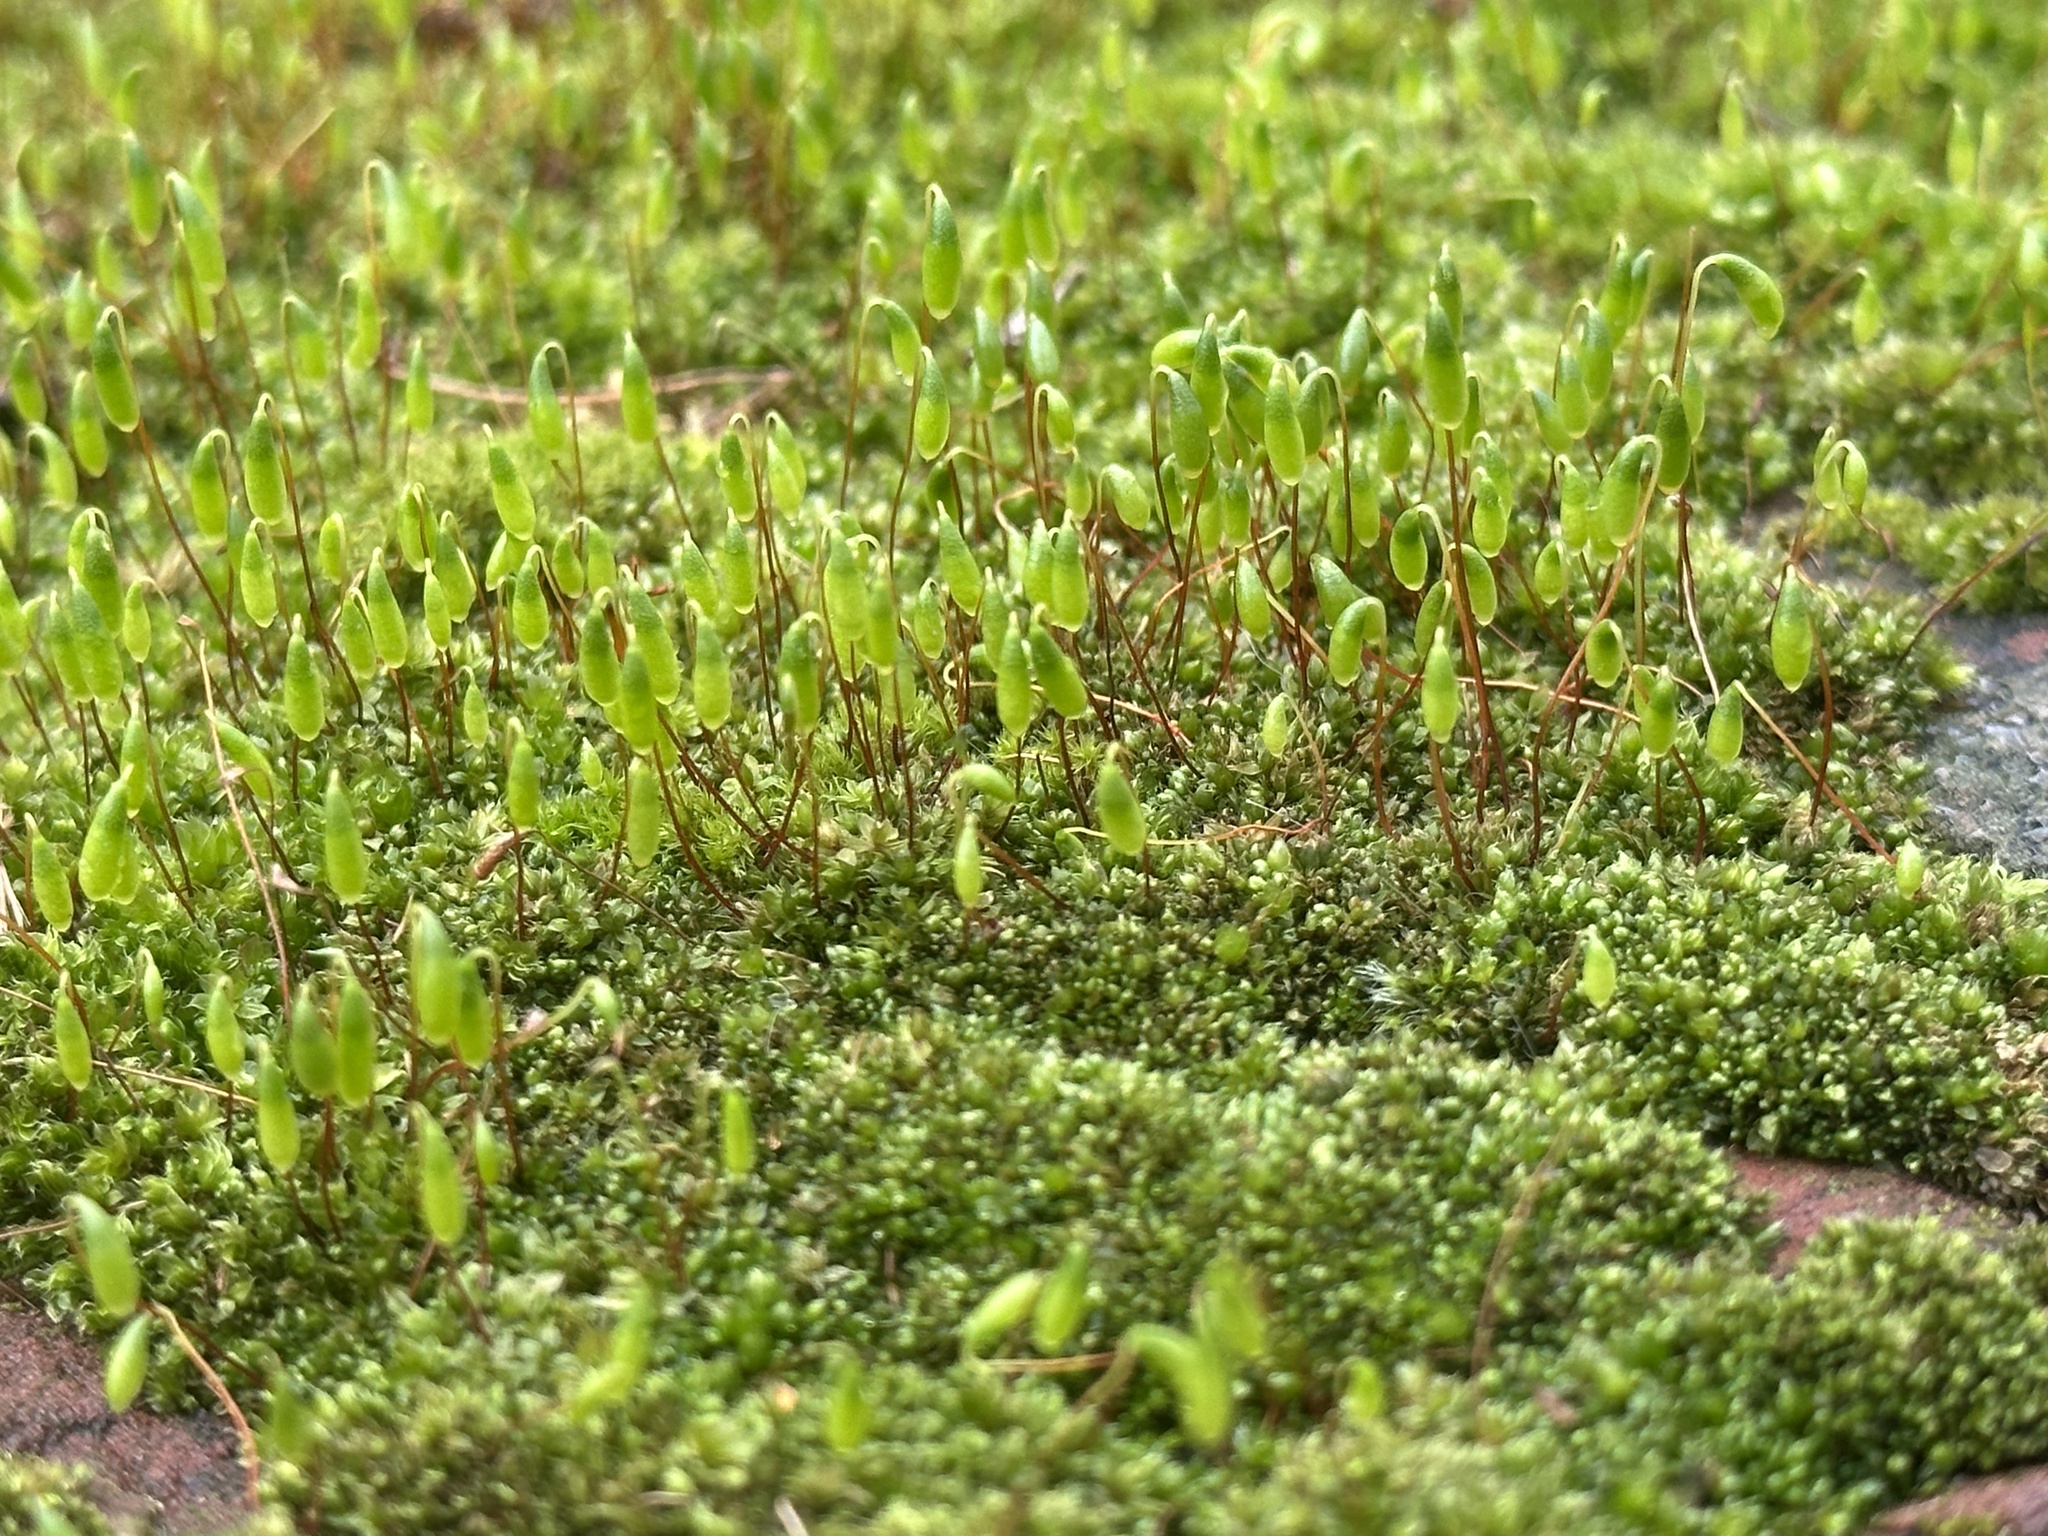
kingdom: Plantae
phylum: Bryophyta
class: Bryopsida
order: Bryales
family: Bryaceae
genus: Rosulabryum
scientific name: Rosulabryum capillare
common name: Capillary thread-moss
